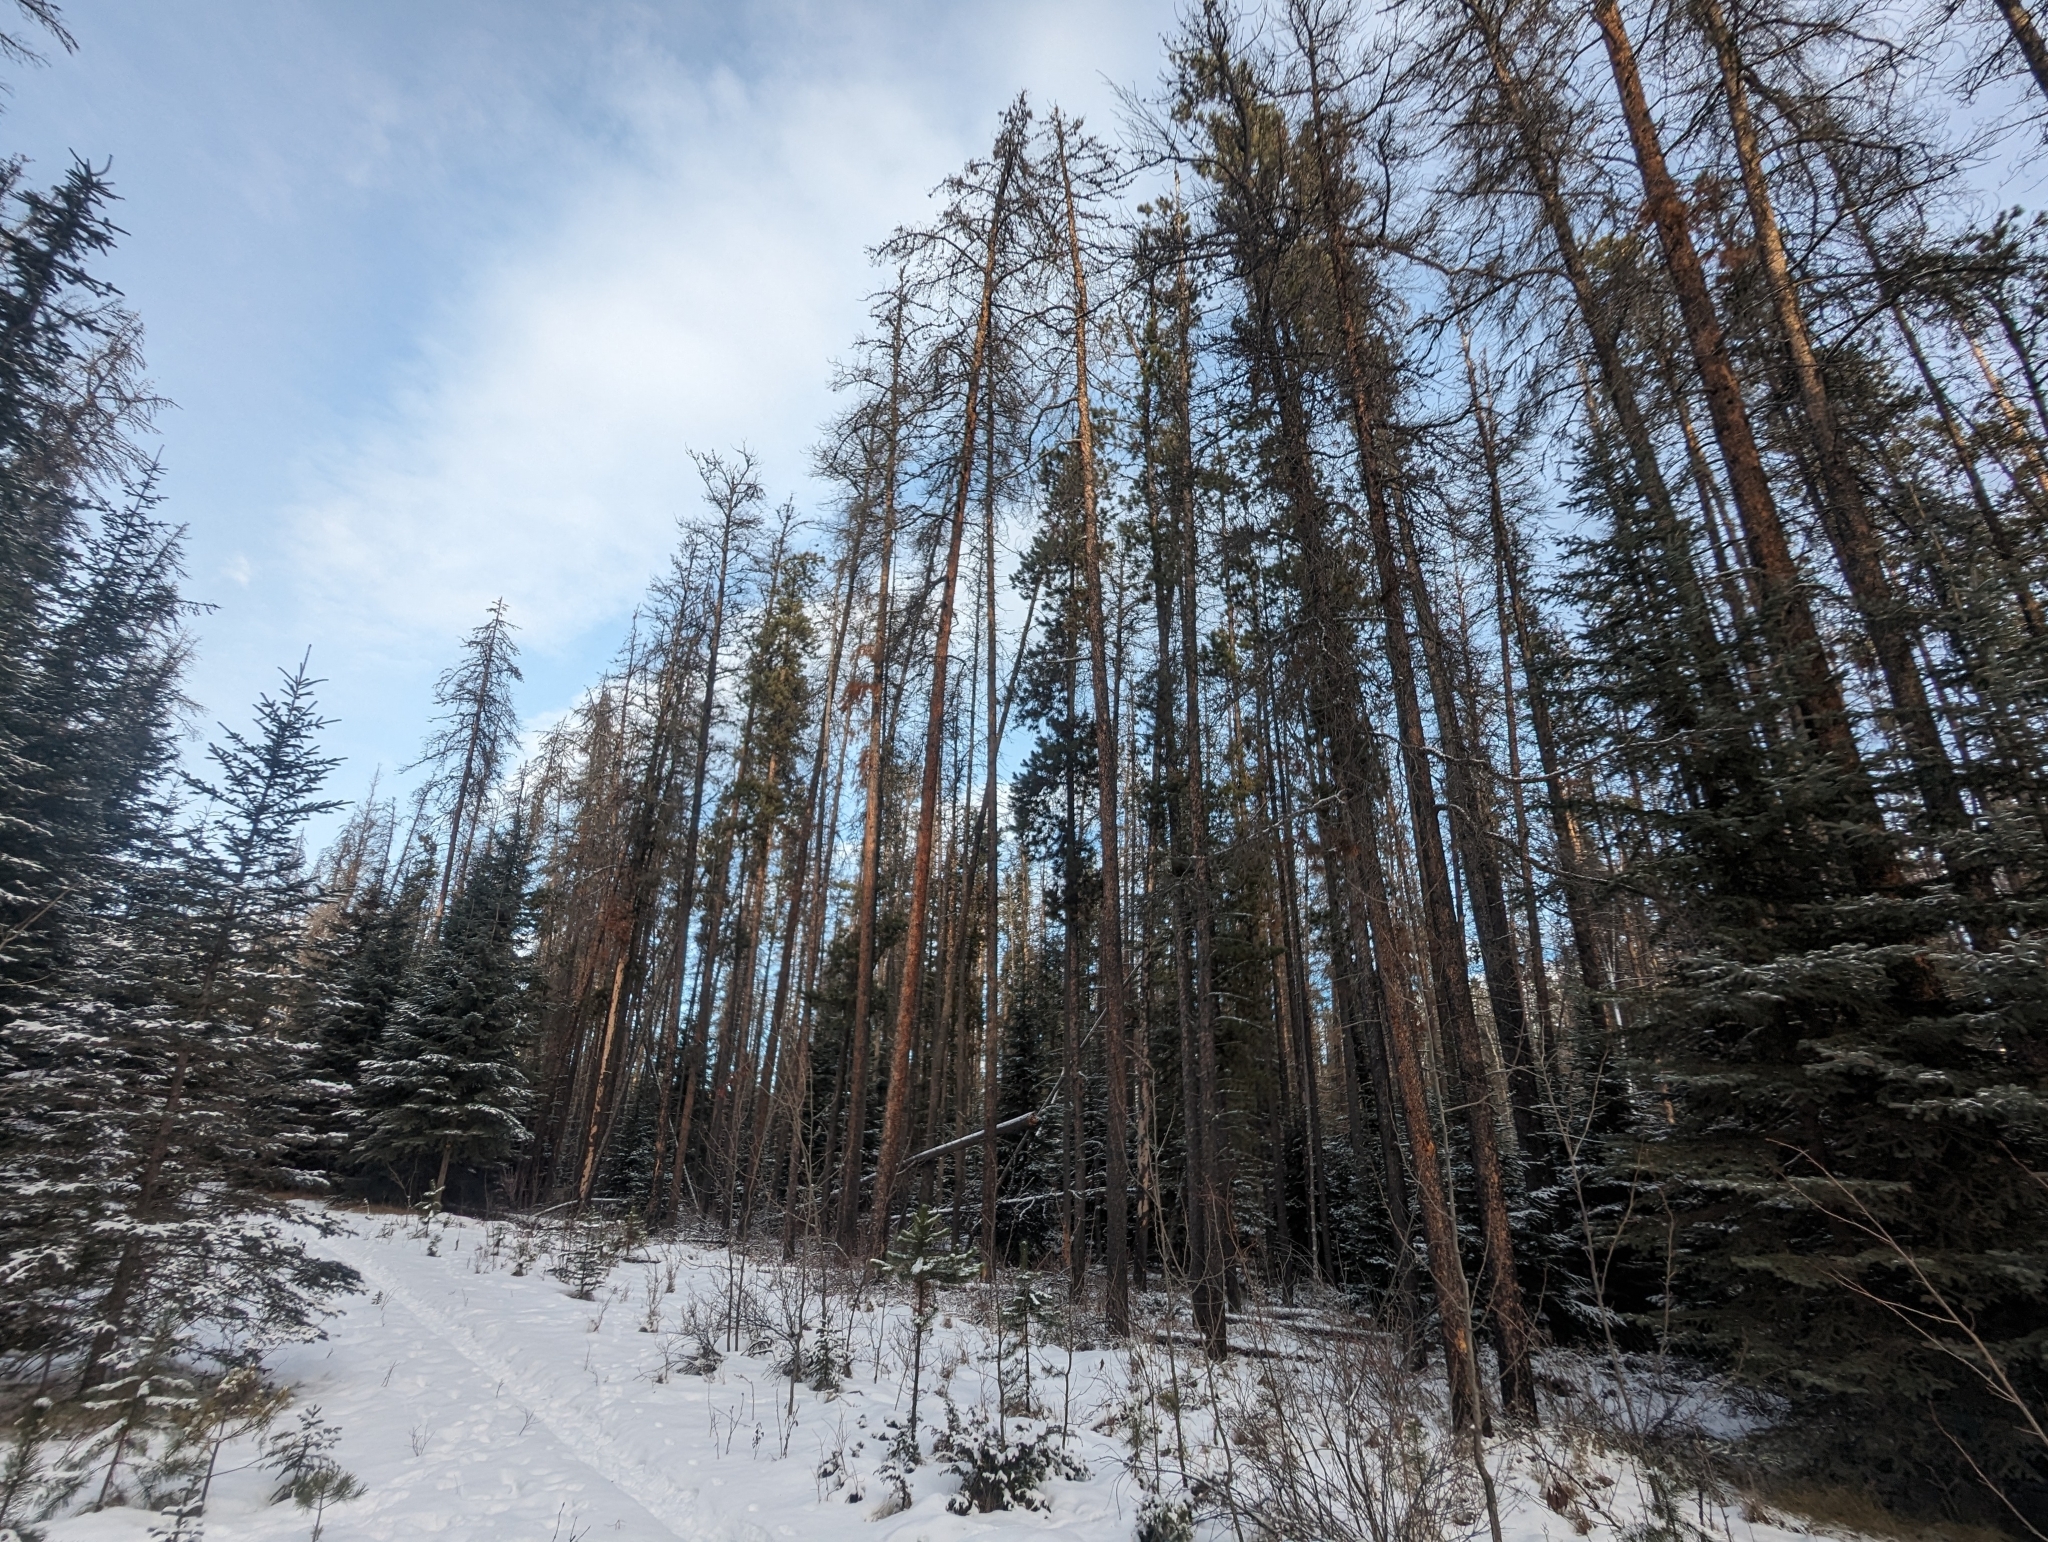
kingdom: Plantae
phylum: Tracheophyta
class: Pinopsida
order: Pinales
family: Pinaceae
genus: Pinus
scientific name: Pinus contorta
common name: Lodgepole pine
